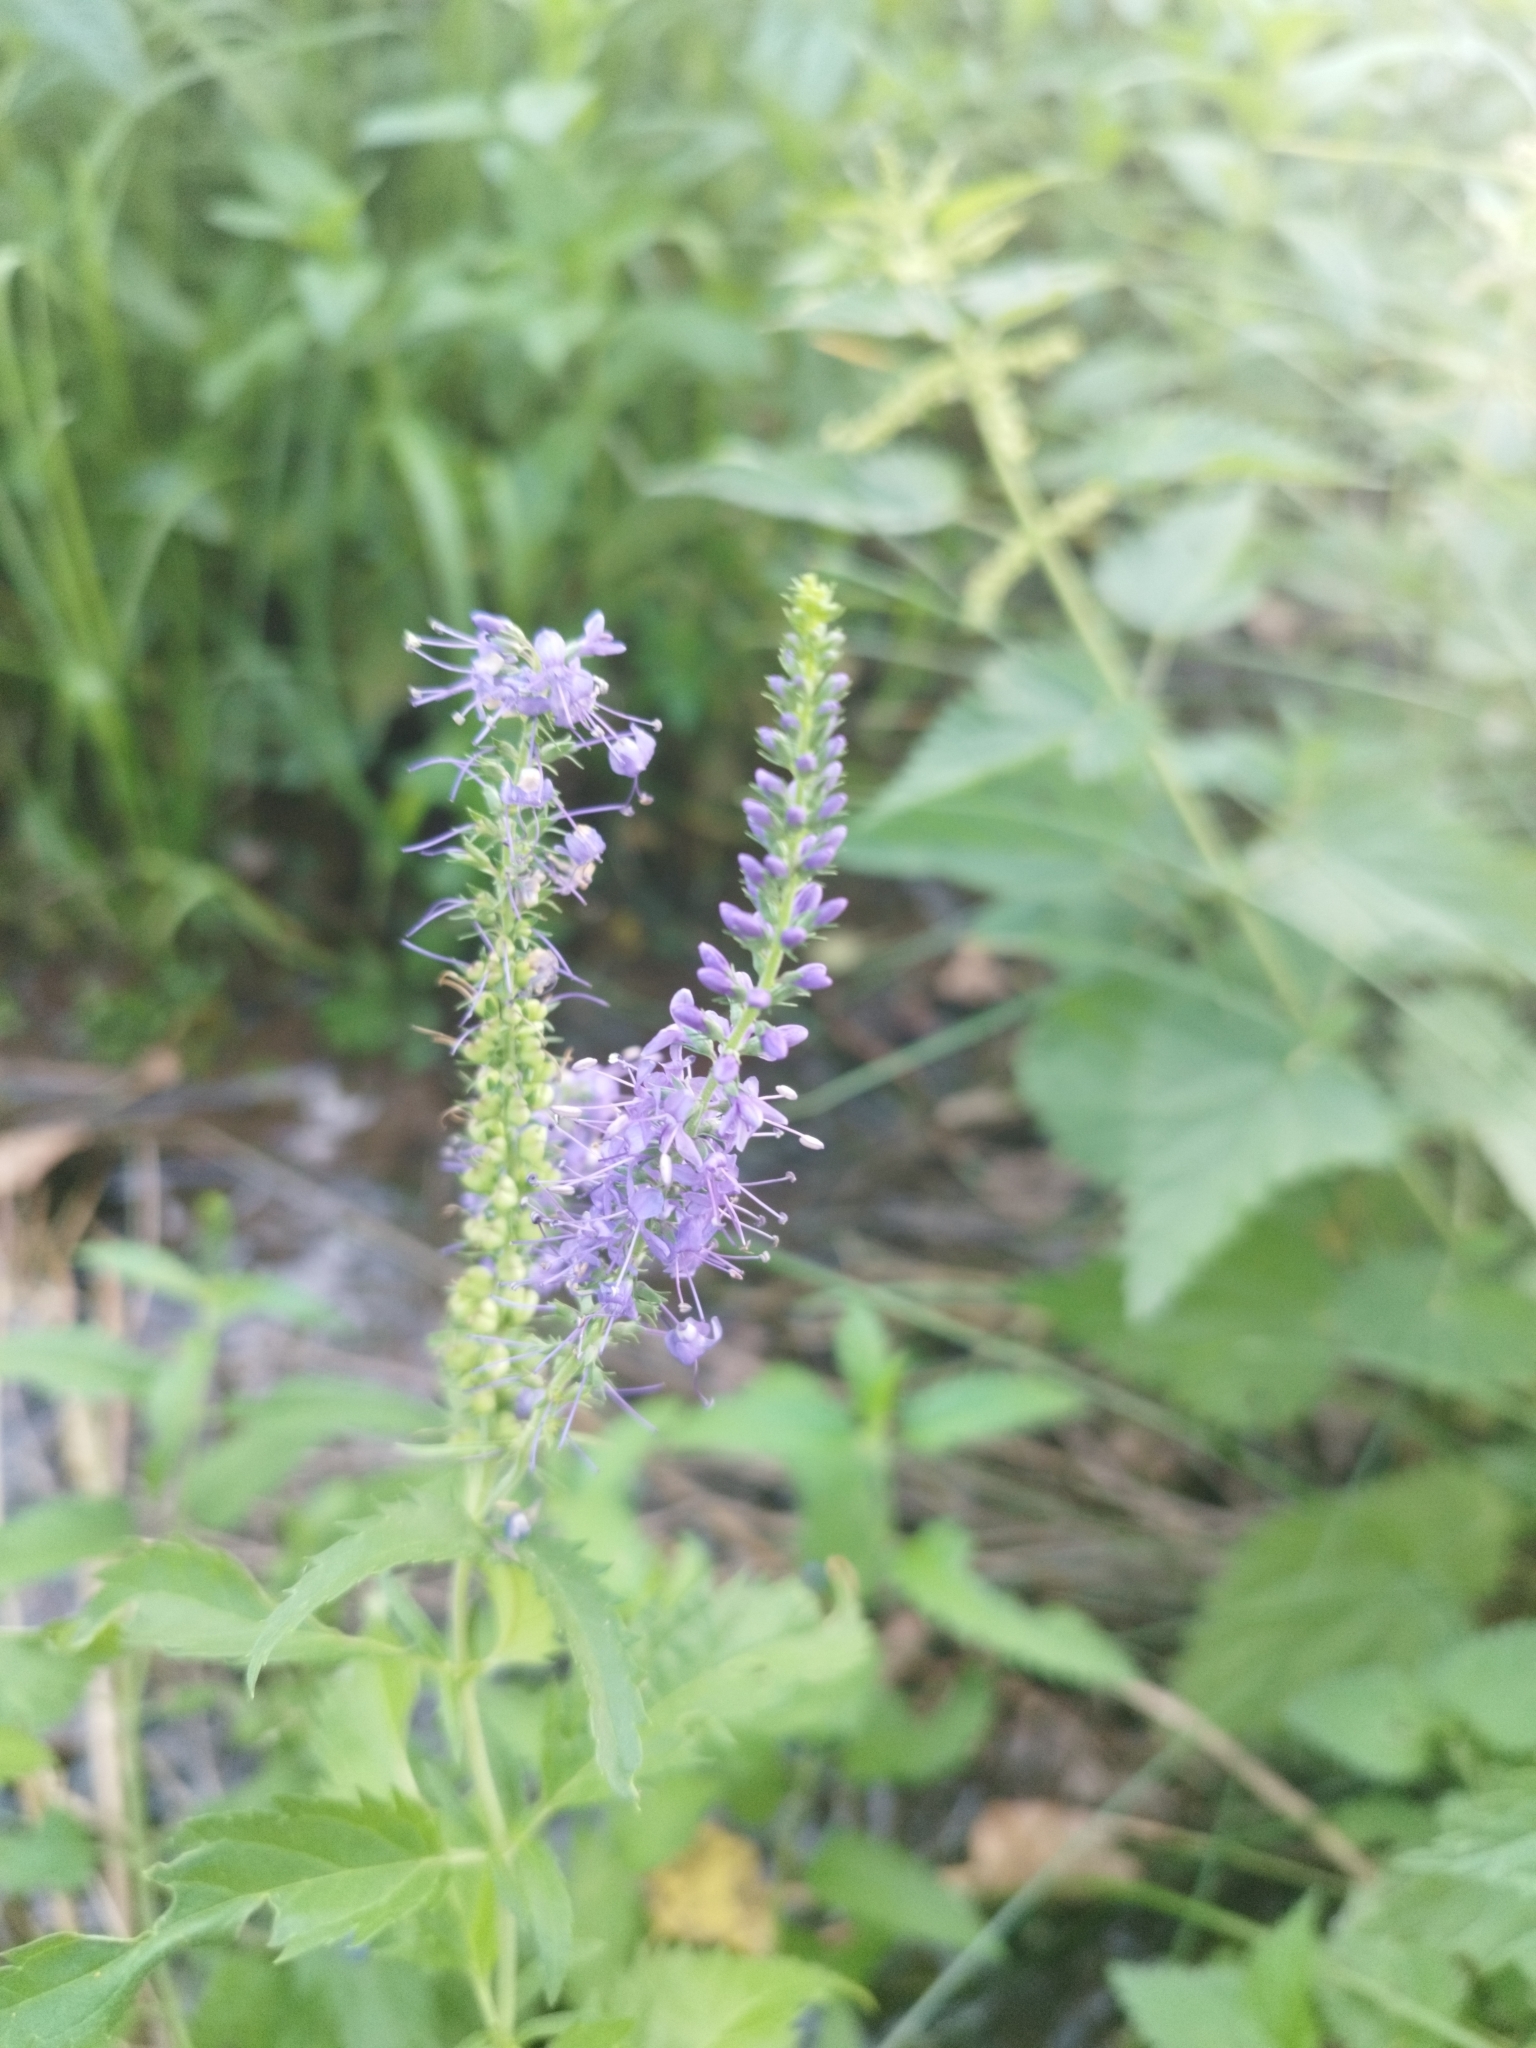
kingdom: Plantae
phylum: Tracheophyta
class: Magnoliopsida
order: Lamiales
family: Plantaginaceae
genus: Veronica
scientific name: Veronica longifolia
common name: Garden speedwell
